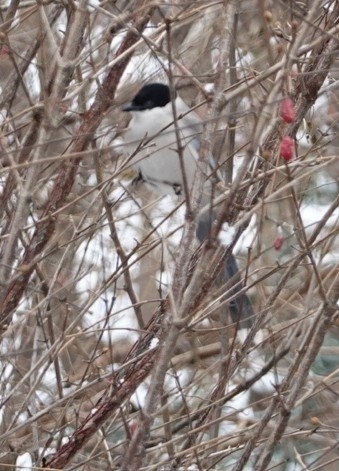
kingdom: Animalia
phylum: Chordata
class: Aves
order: Passeriformes
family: Corvidae
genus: Cyanopica
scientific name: Cyanopica cyanus
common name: Azure-winged magpie
